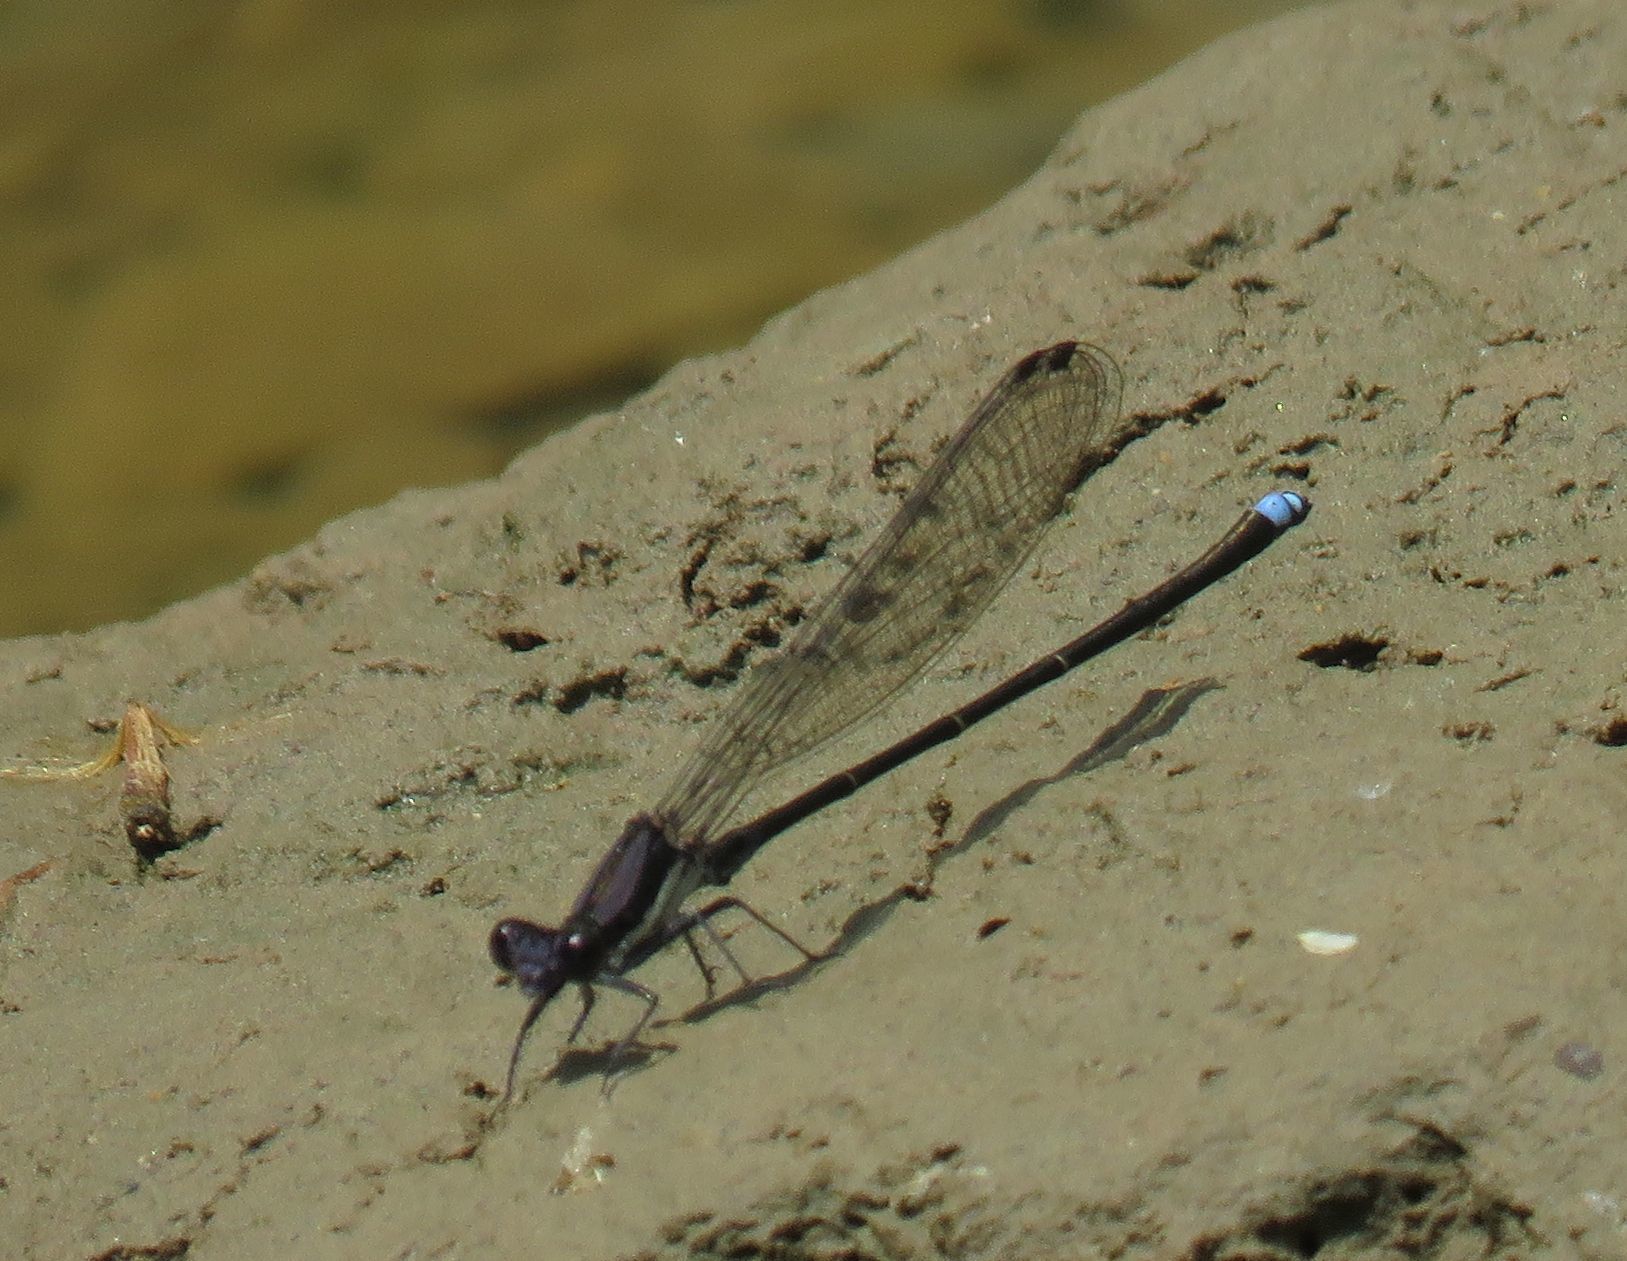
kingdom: Animalia
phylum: Arthropoda
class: Insecta
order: Odonata
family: Coenagrionidae
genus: Argia
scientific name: Argia tibialis
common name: Blue-tipped dancer
